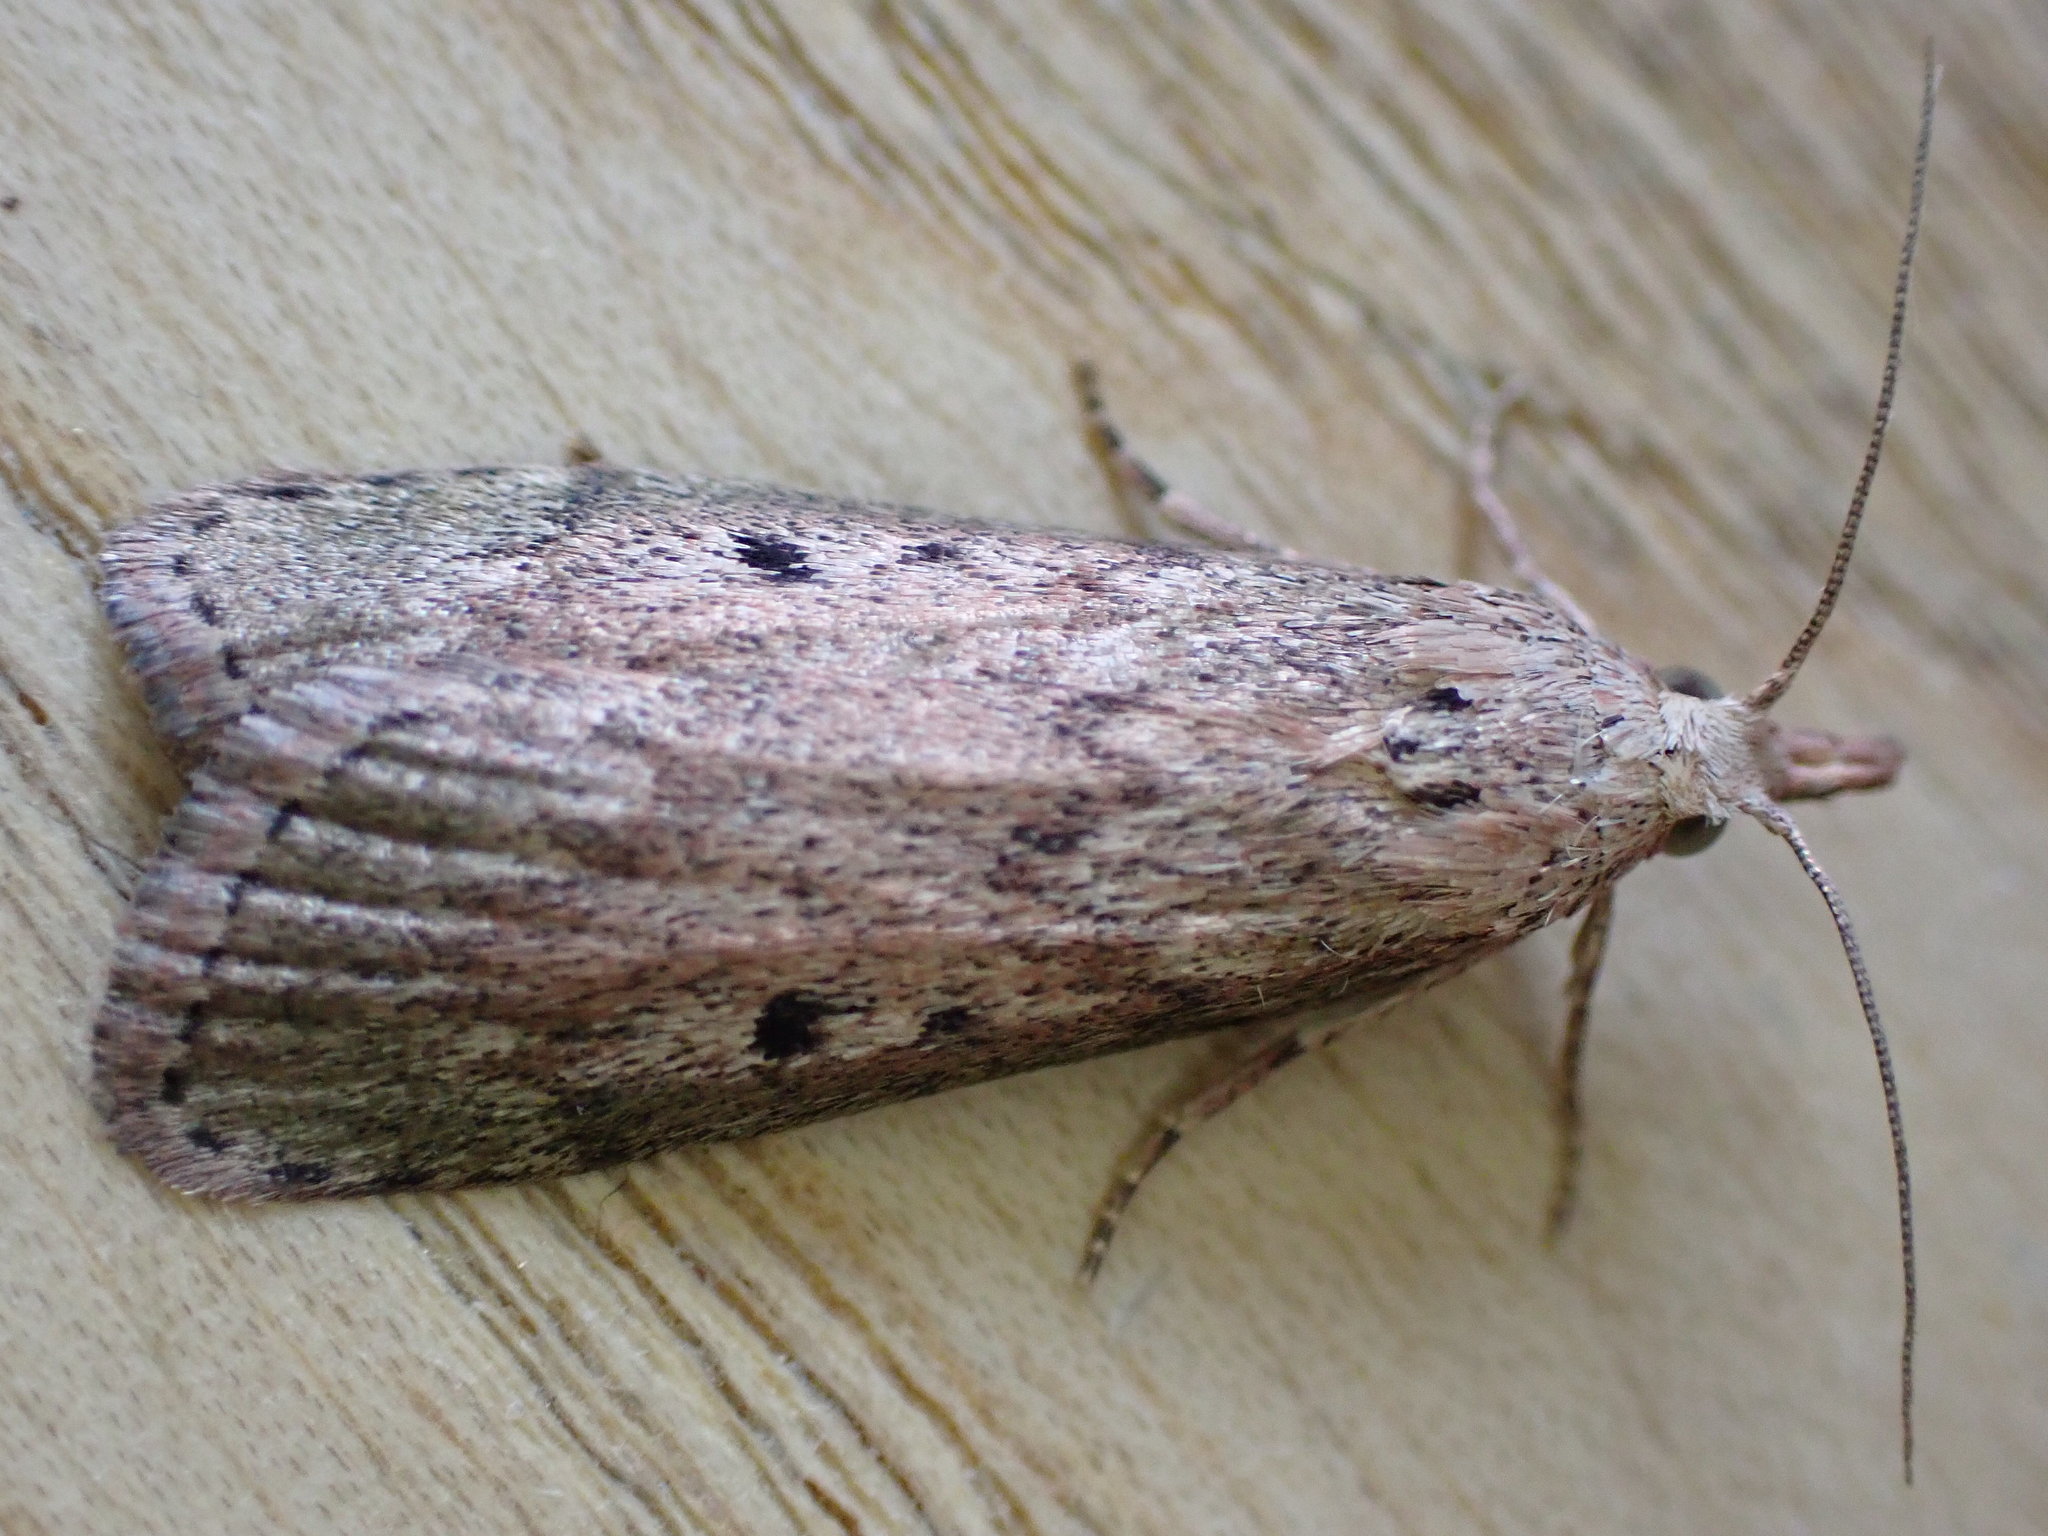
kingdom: Animalia
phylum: Arthropoda
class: Insecta
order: Lepidoptera
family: Pyralidae
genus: Aphomia
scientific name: Aphomia sociella
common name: Bee moth
